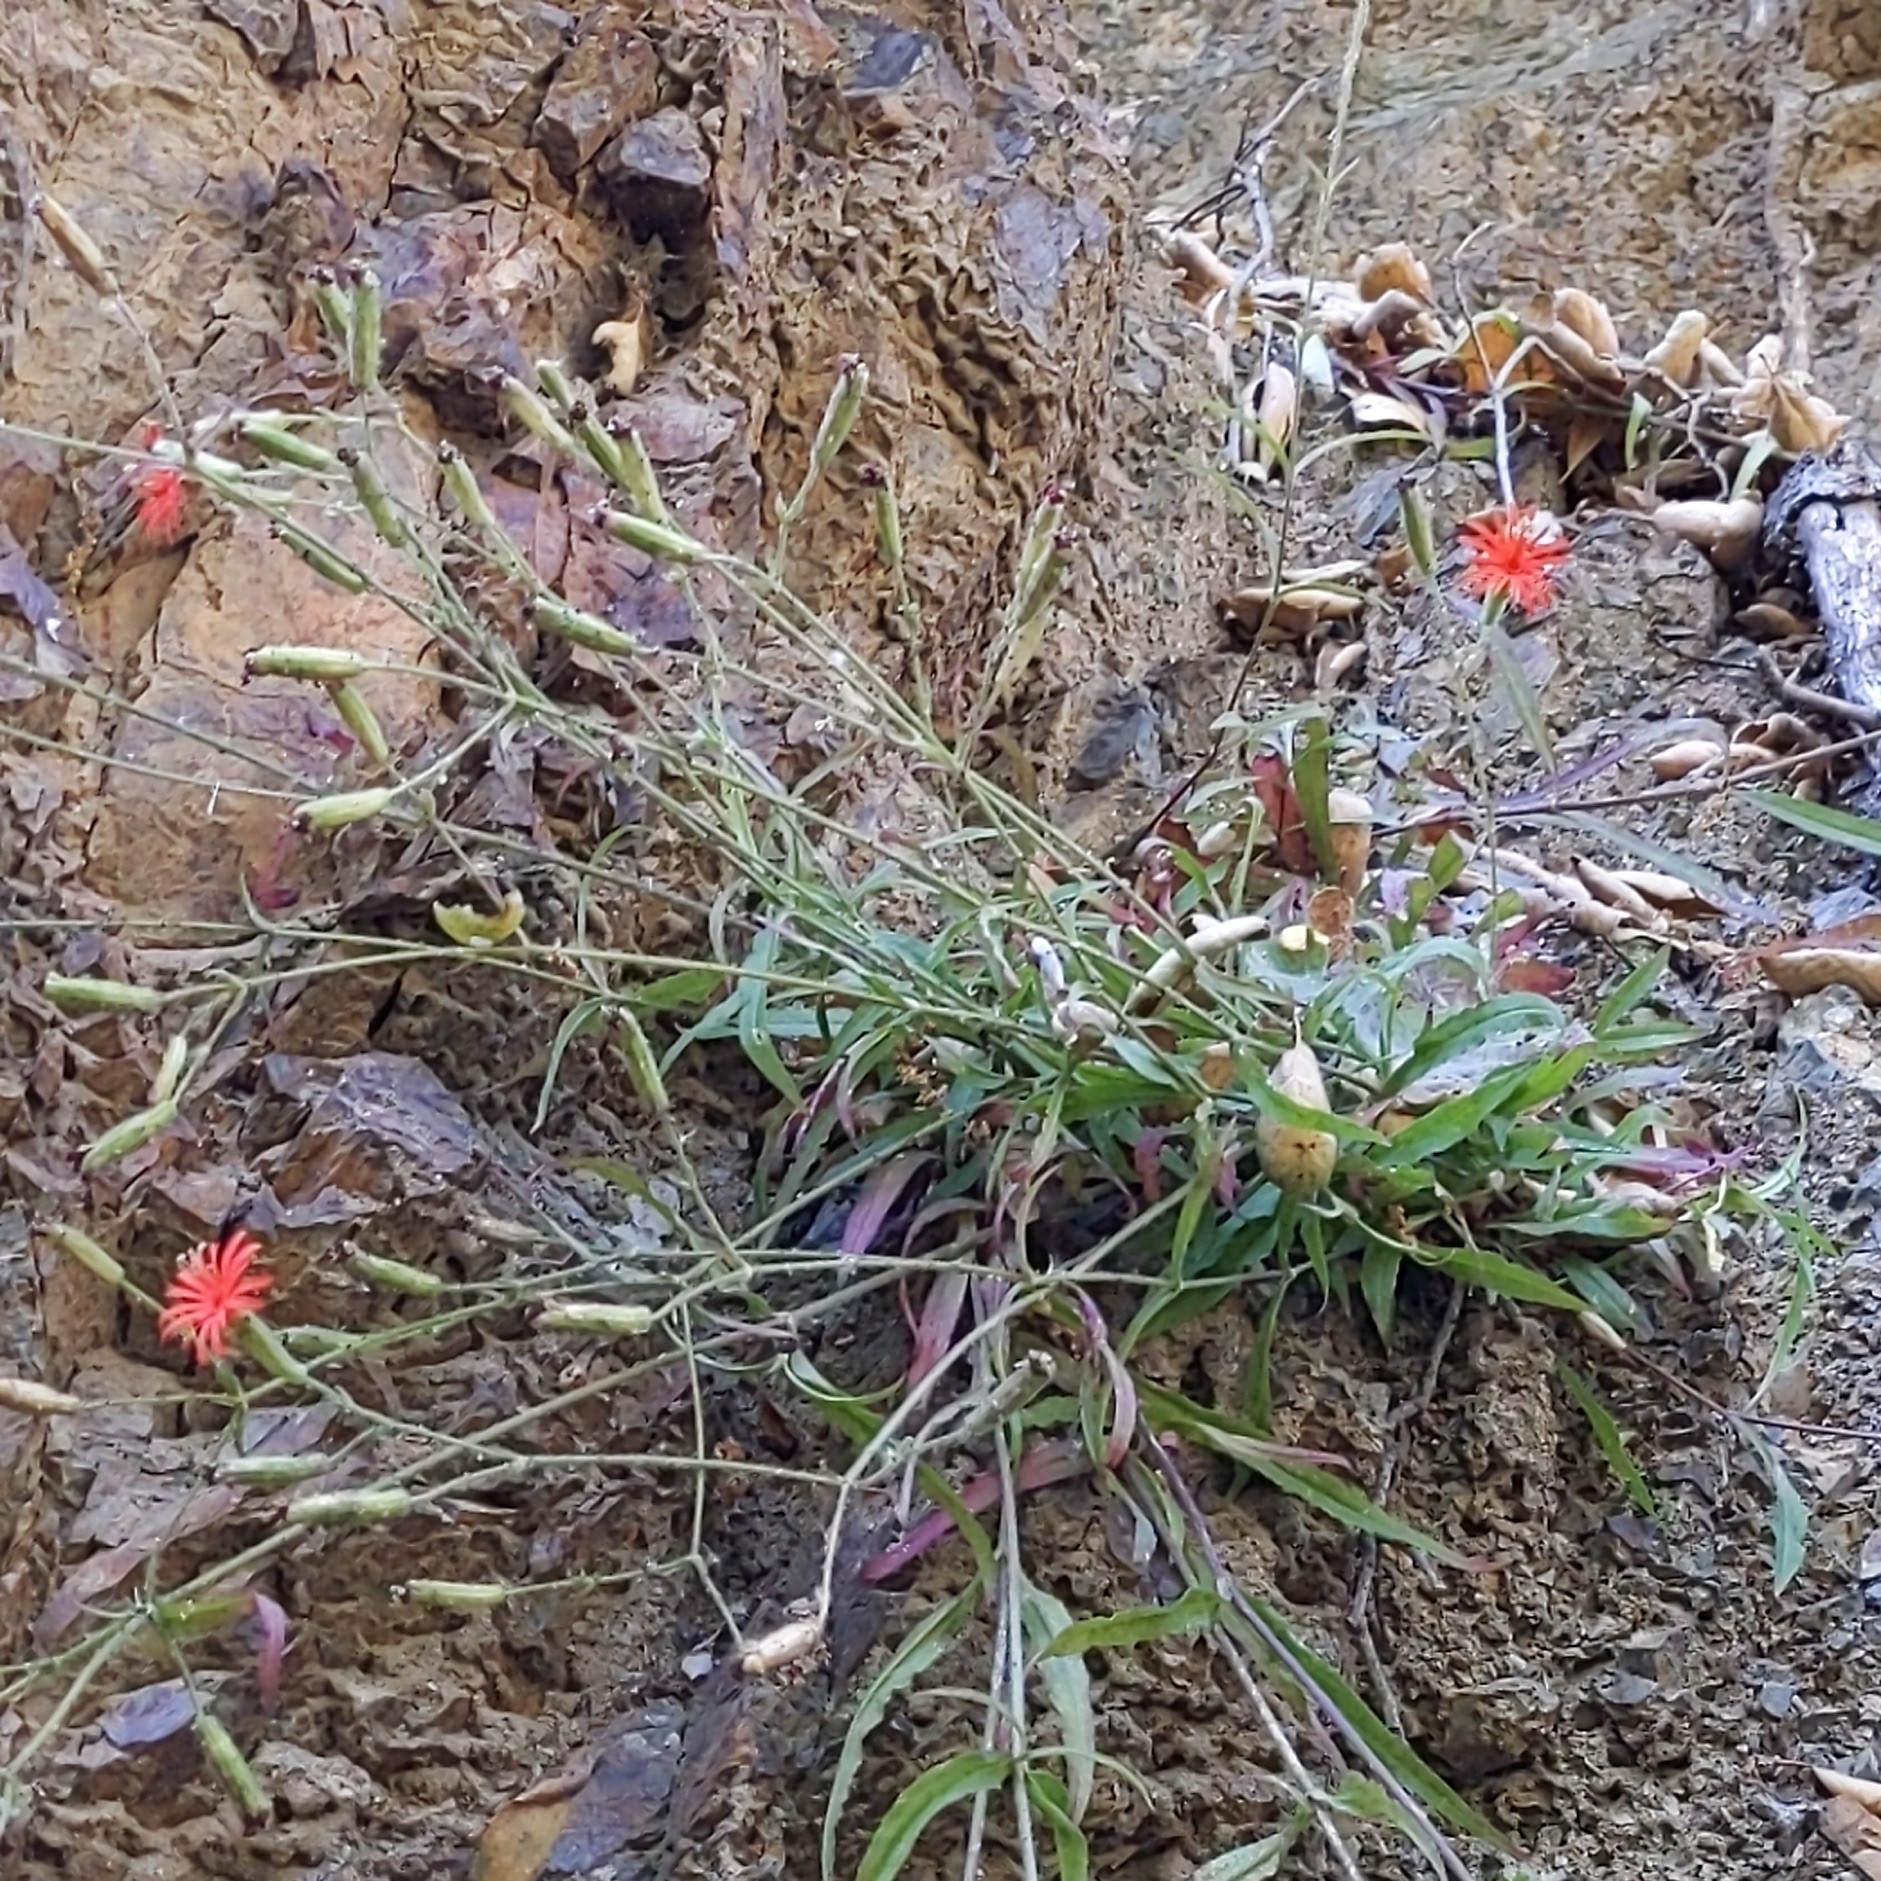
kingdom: Plantae
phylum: Tracheophyta
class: Magnoliopsida
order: Caryophyllales
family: Caryophyllaceae
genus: Silene
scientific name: Silene laciniata
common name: Indian-pink
